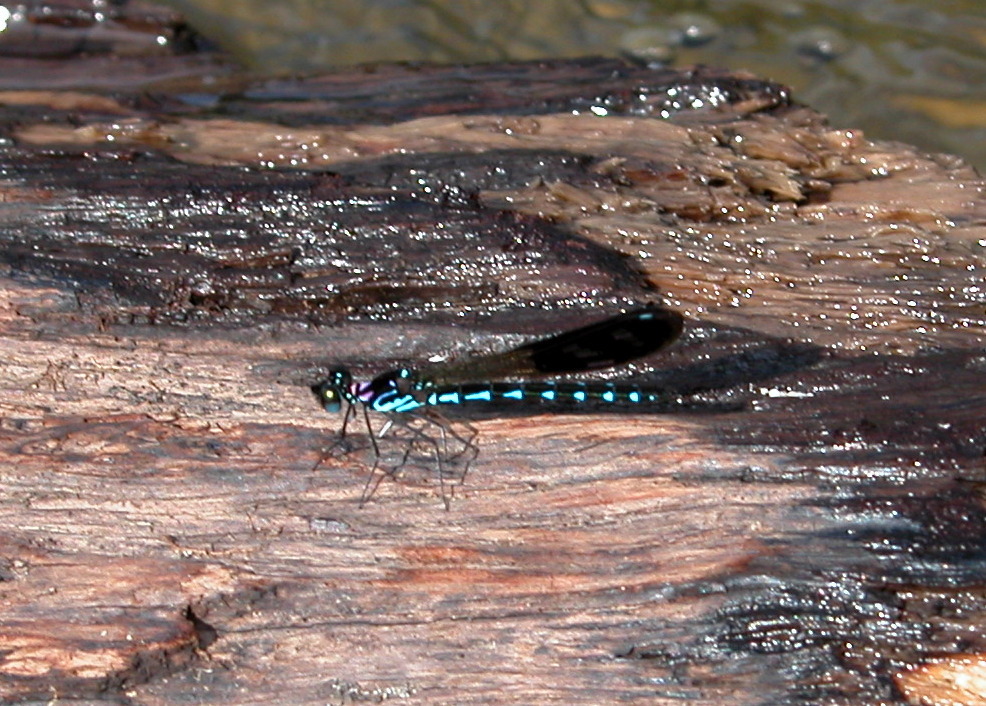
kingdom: Animalia
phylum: Arthropoda
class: Insecta
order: Odonata
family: Chlorocyphidae
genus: Heliocypha
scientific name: Heliocypha perforata
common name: Common blue jewel
